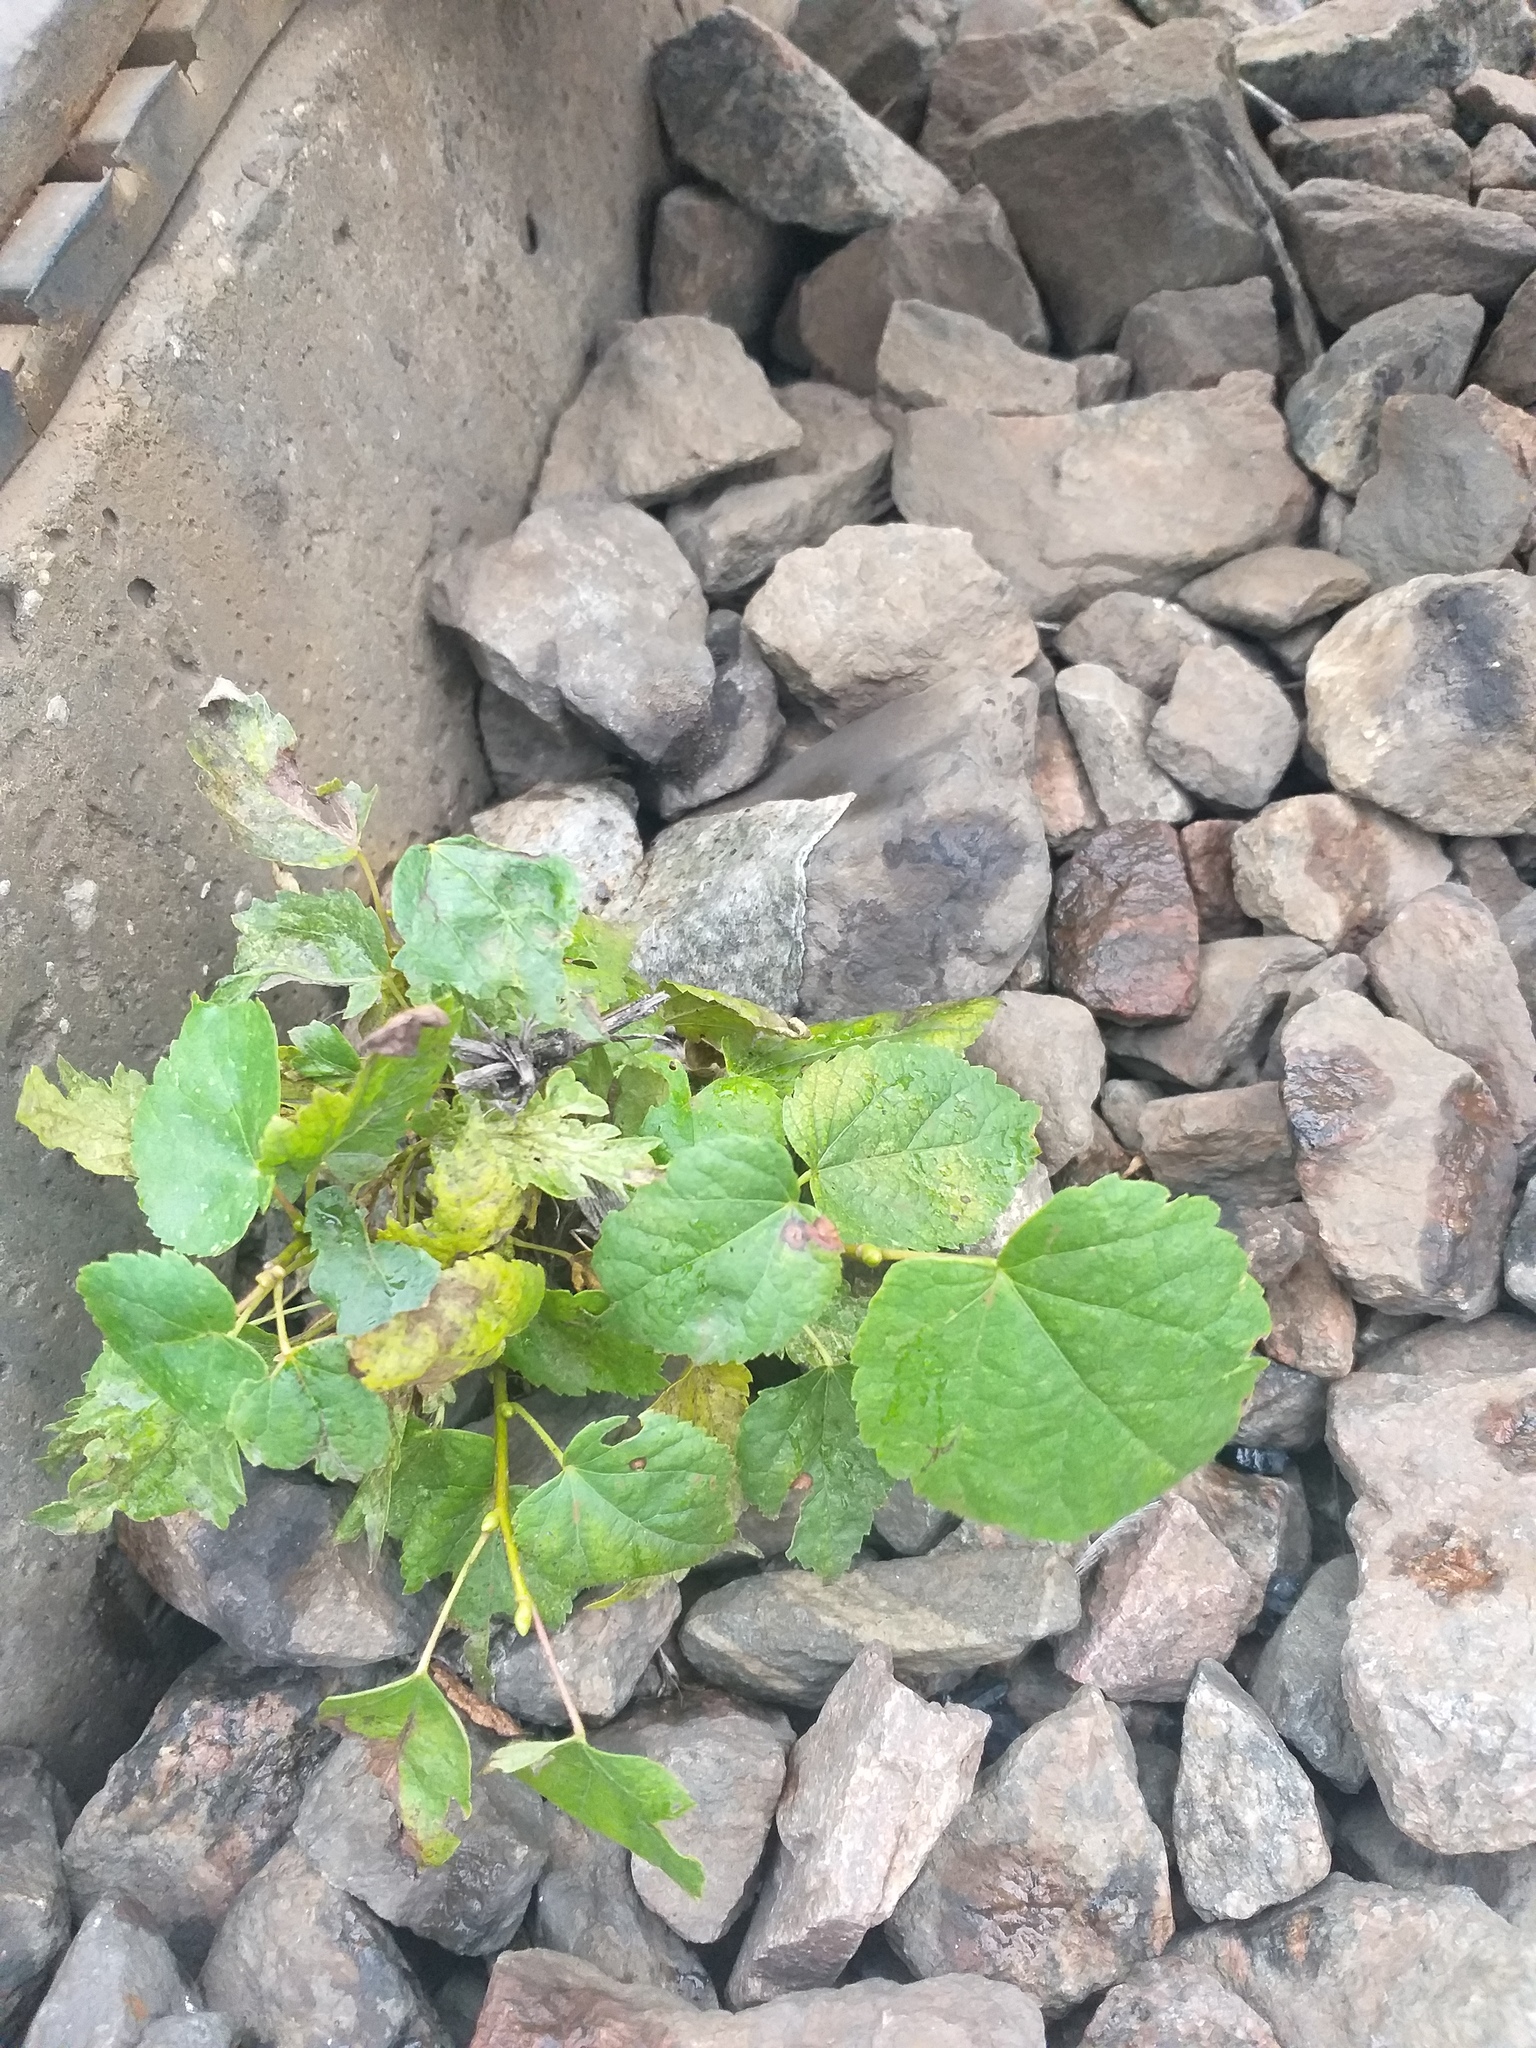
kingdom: Plantae
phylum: Tracheophyta
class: Magnoliopsida
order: Malvales
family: Malvaceae
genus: Tilia
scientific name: Tilia cordata
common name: Small-leaved lime
